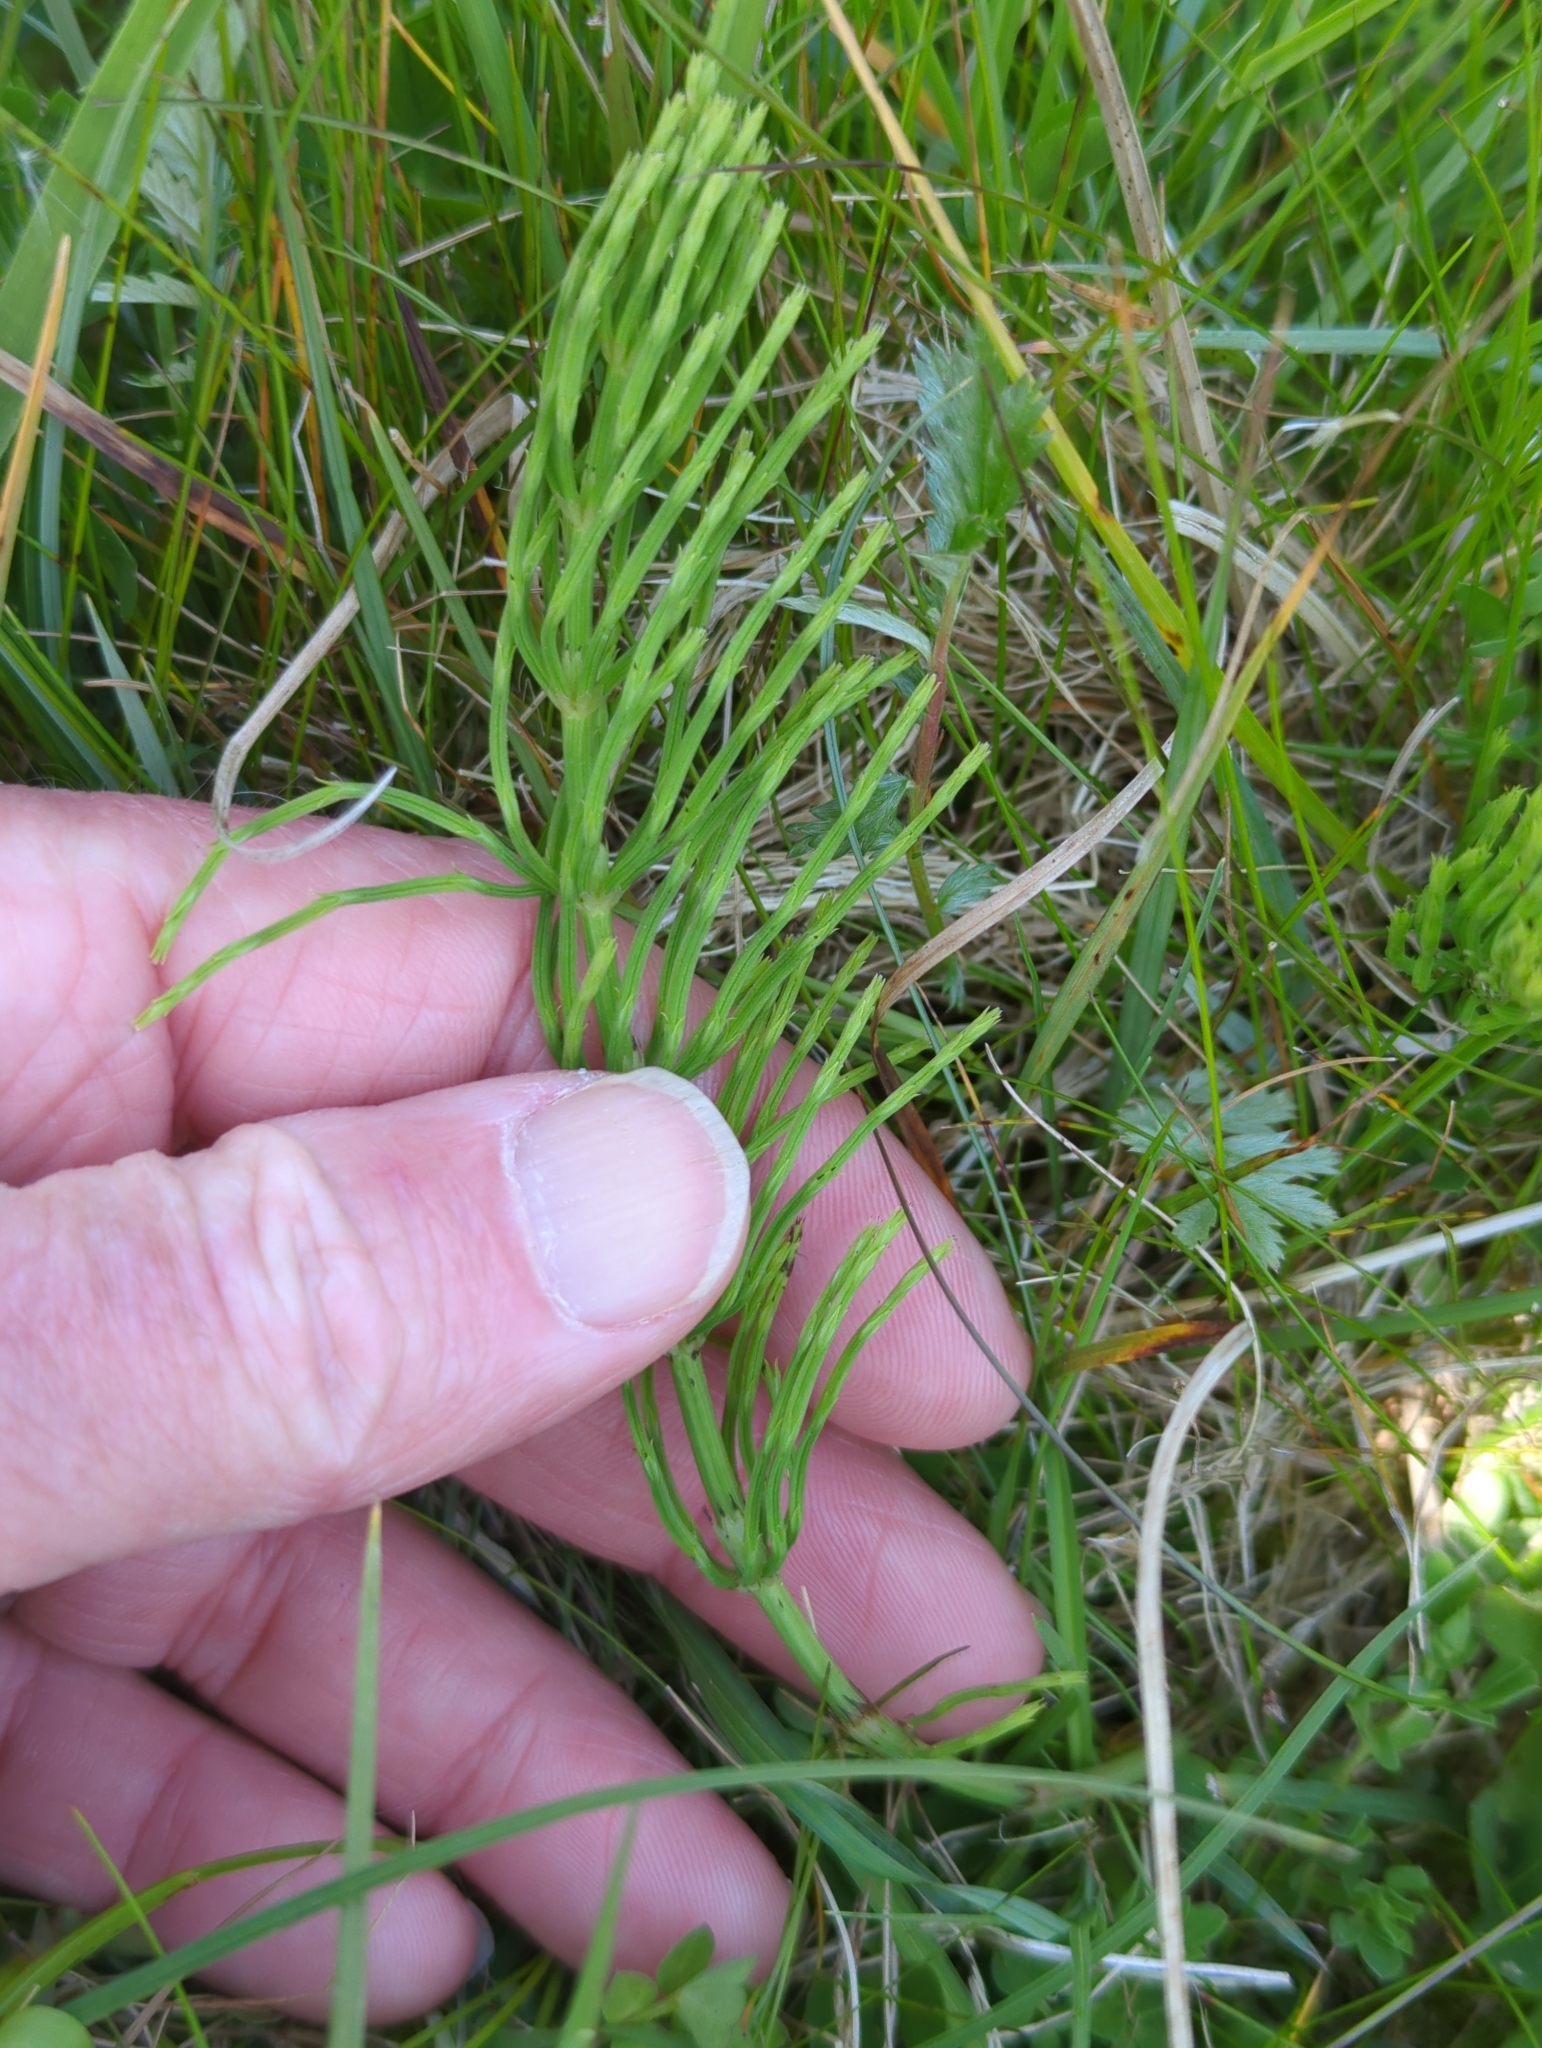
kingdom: Plantae
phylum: Tracheophyta
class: Polypodiopsida
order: Equisetales
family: Equisetaceae
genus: Equisetum
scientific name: Equisetum arvense
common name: Field horsetail
